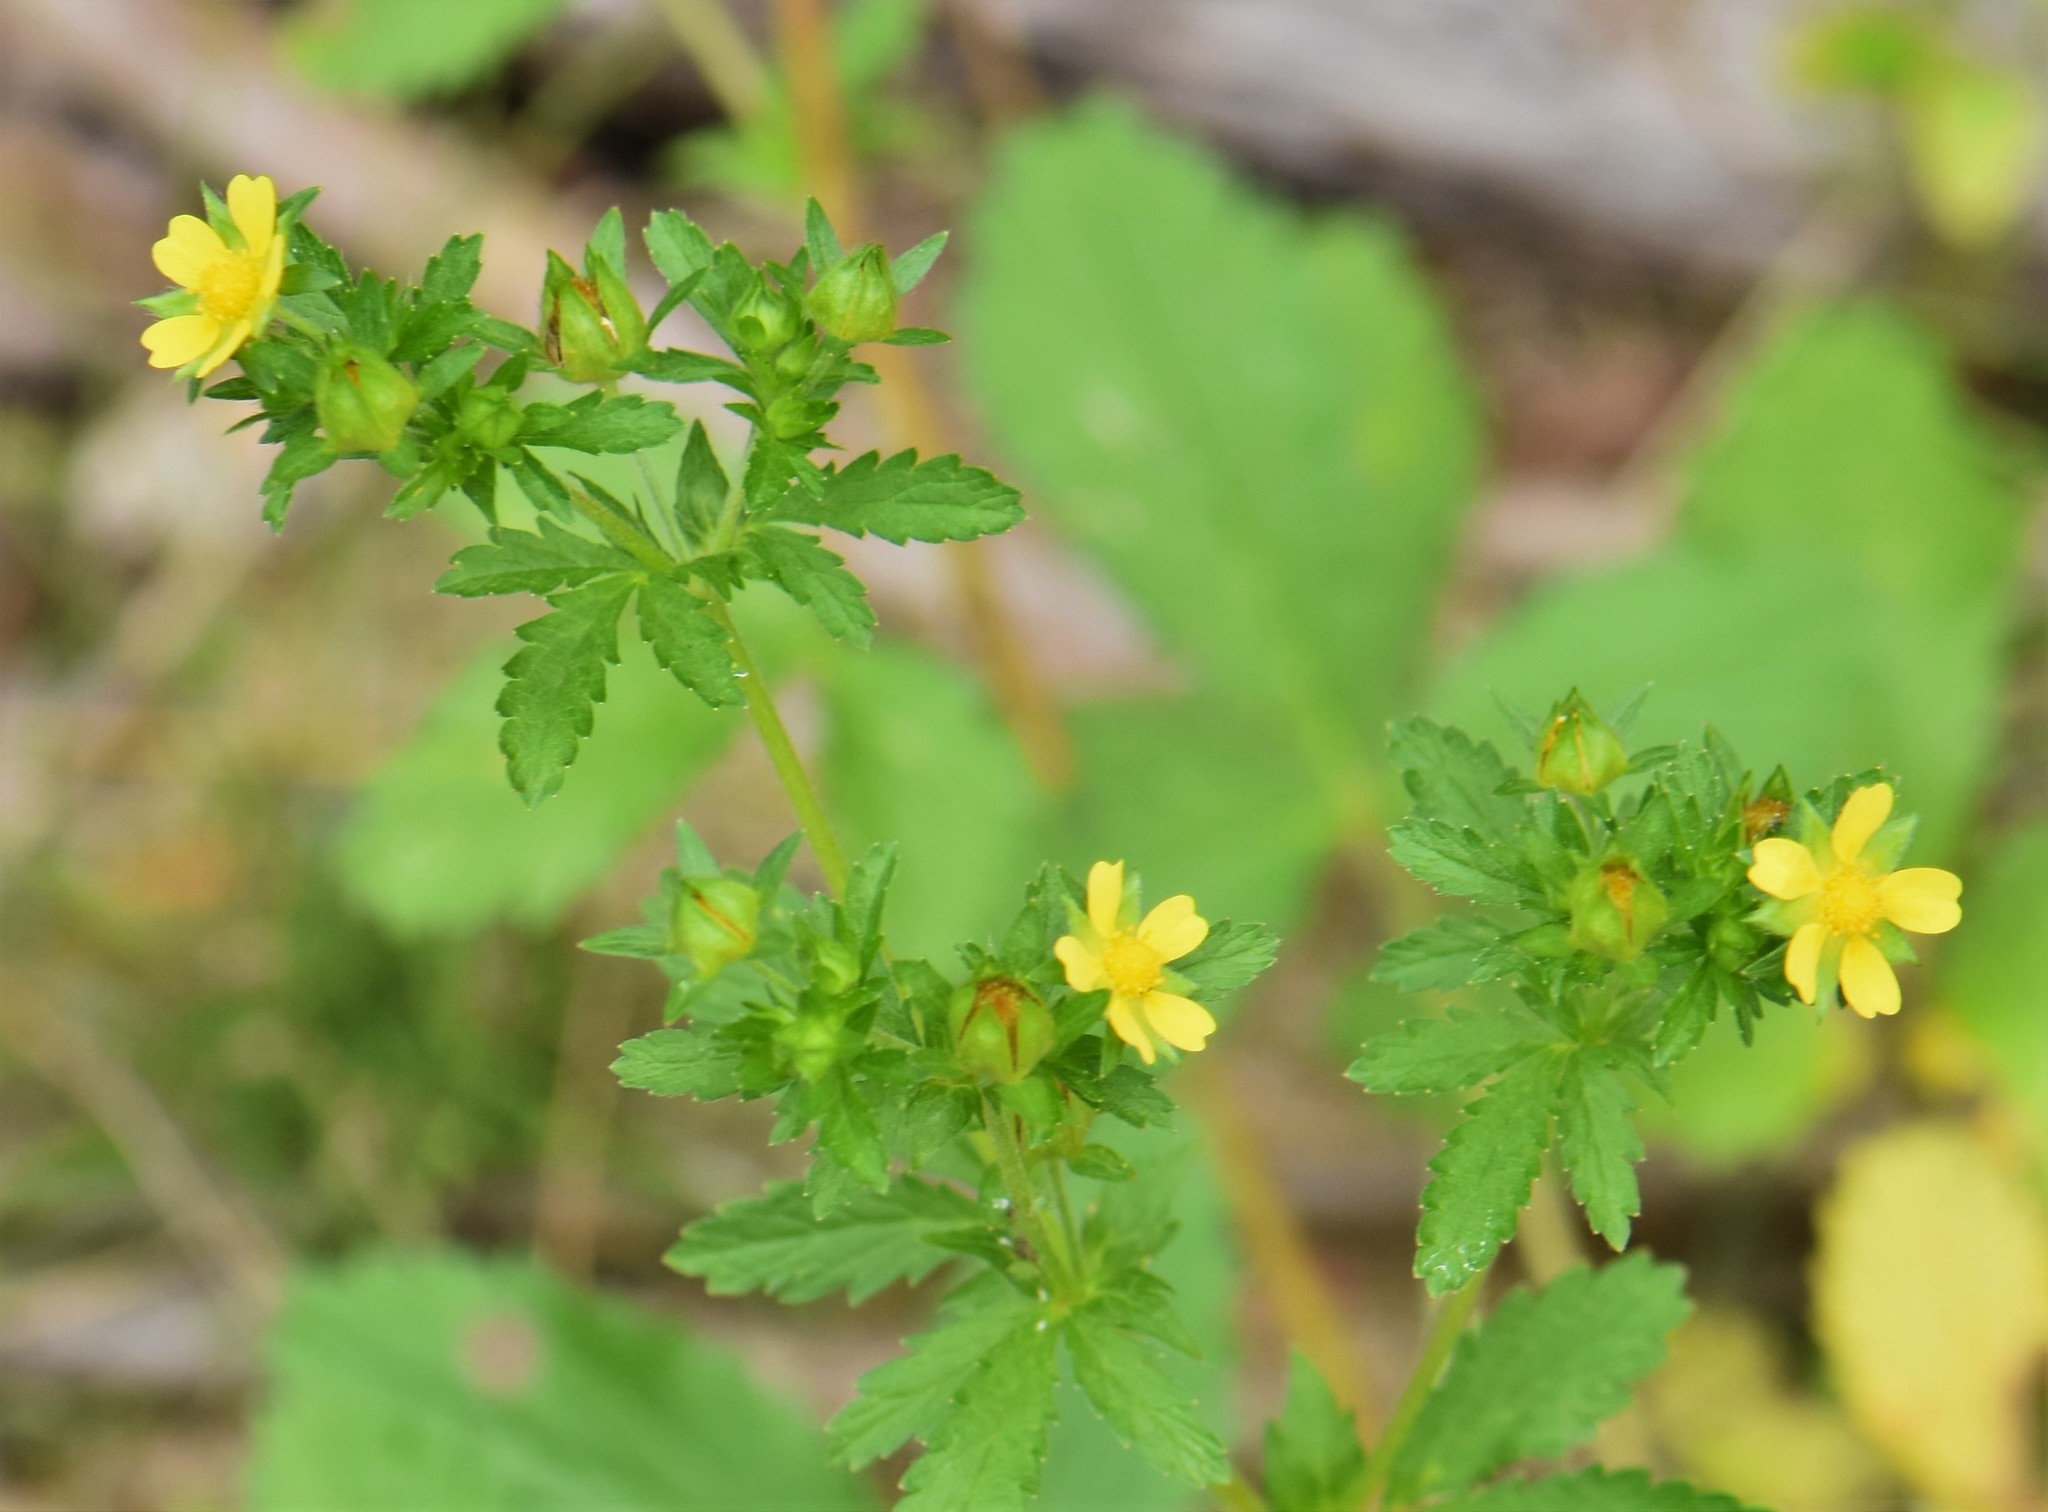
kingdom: Plantae
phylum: Tracheophyta
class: Magnoliopsida
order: Rosales
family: Rosaceae
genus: Potentilla
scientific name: Potentilla norvegica
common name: Ternate-leaved cinquefoil
